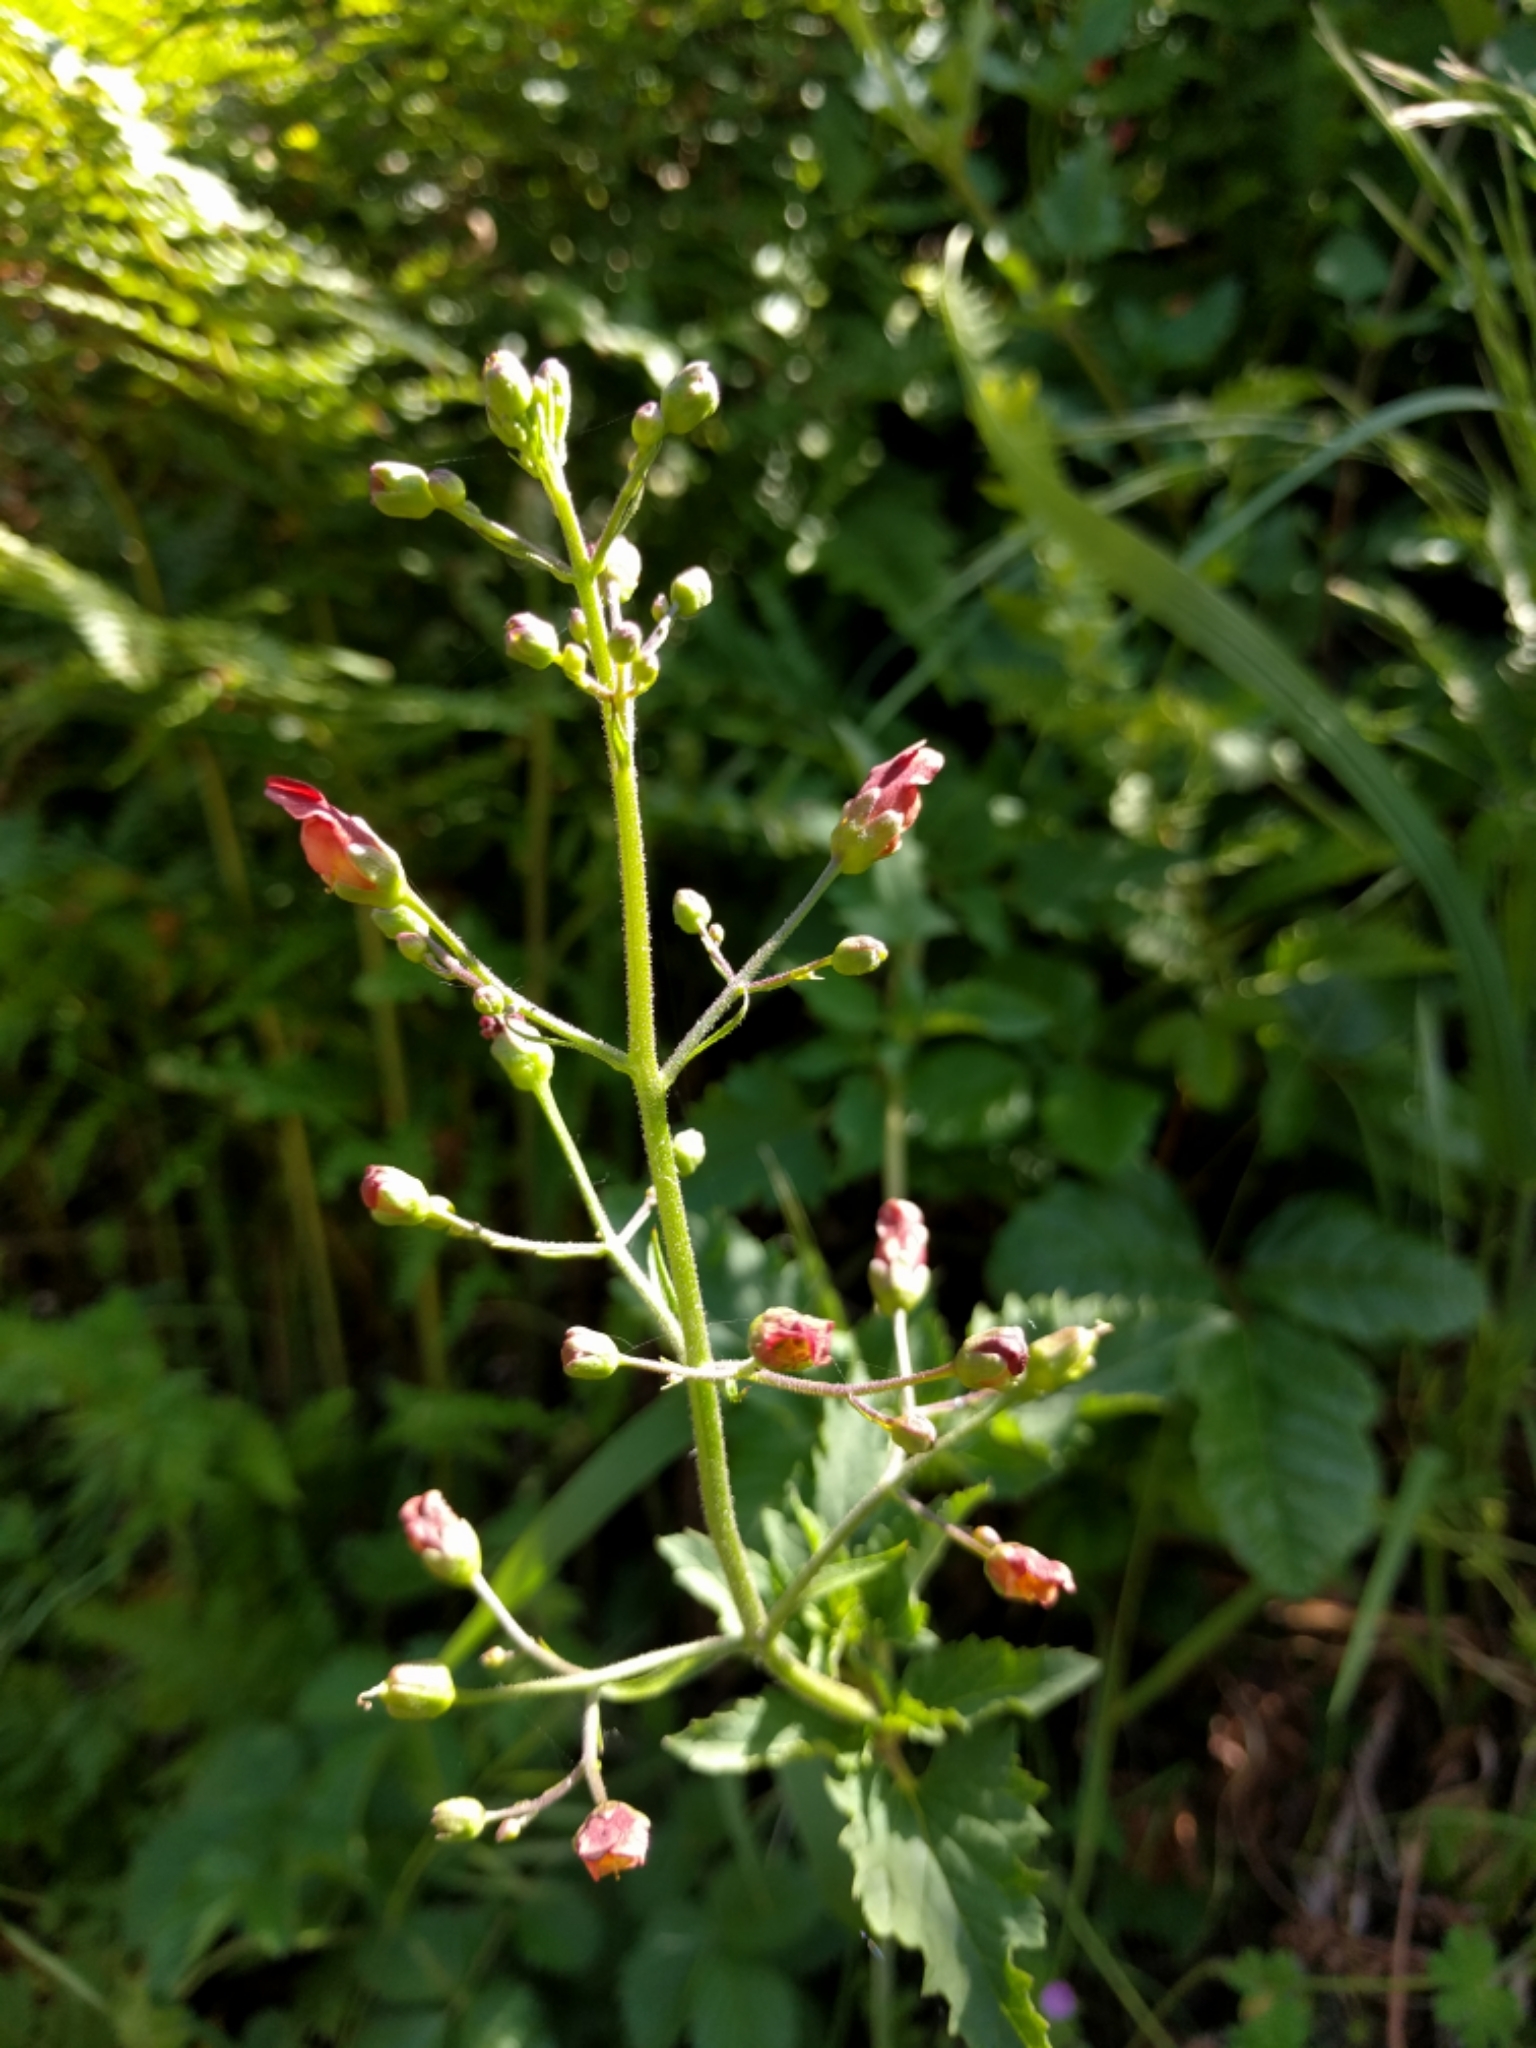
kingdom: Plantae
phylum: Tracheophyta
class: Magnoliopsida
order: Lamiales
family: Scrophulariaceae
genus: Scrophularia
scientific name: Scrophularia californica
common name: California figwort
